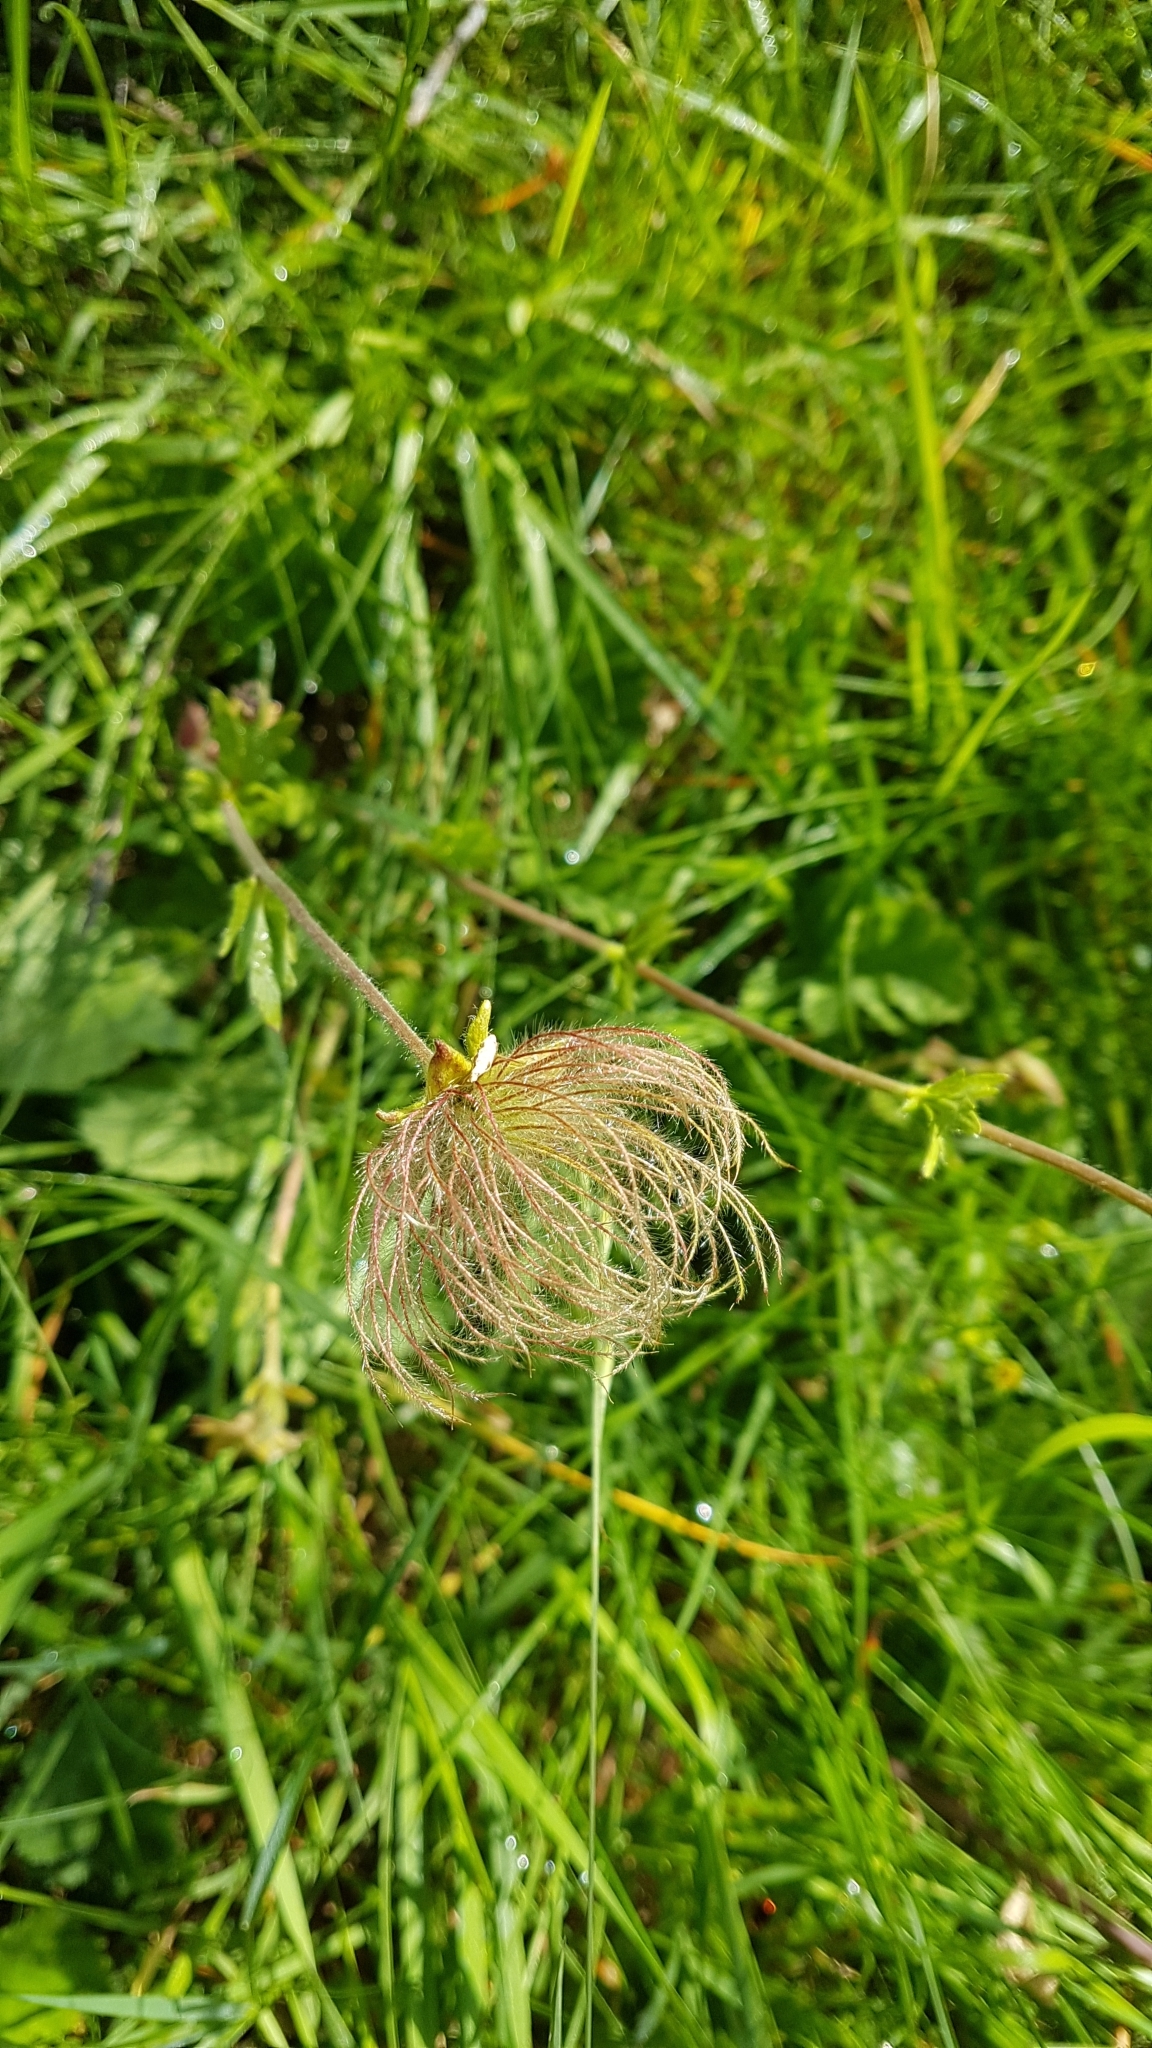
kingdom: Plantae
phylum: Tracheophyta
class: Magnoliopsida
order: Rosales
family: Rosaceae
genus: Geum
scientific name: Geum montanum
